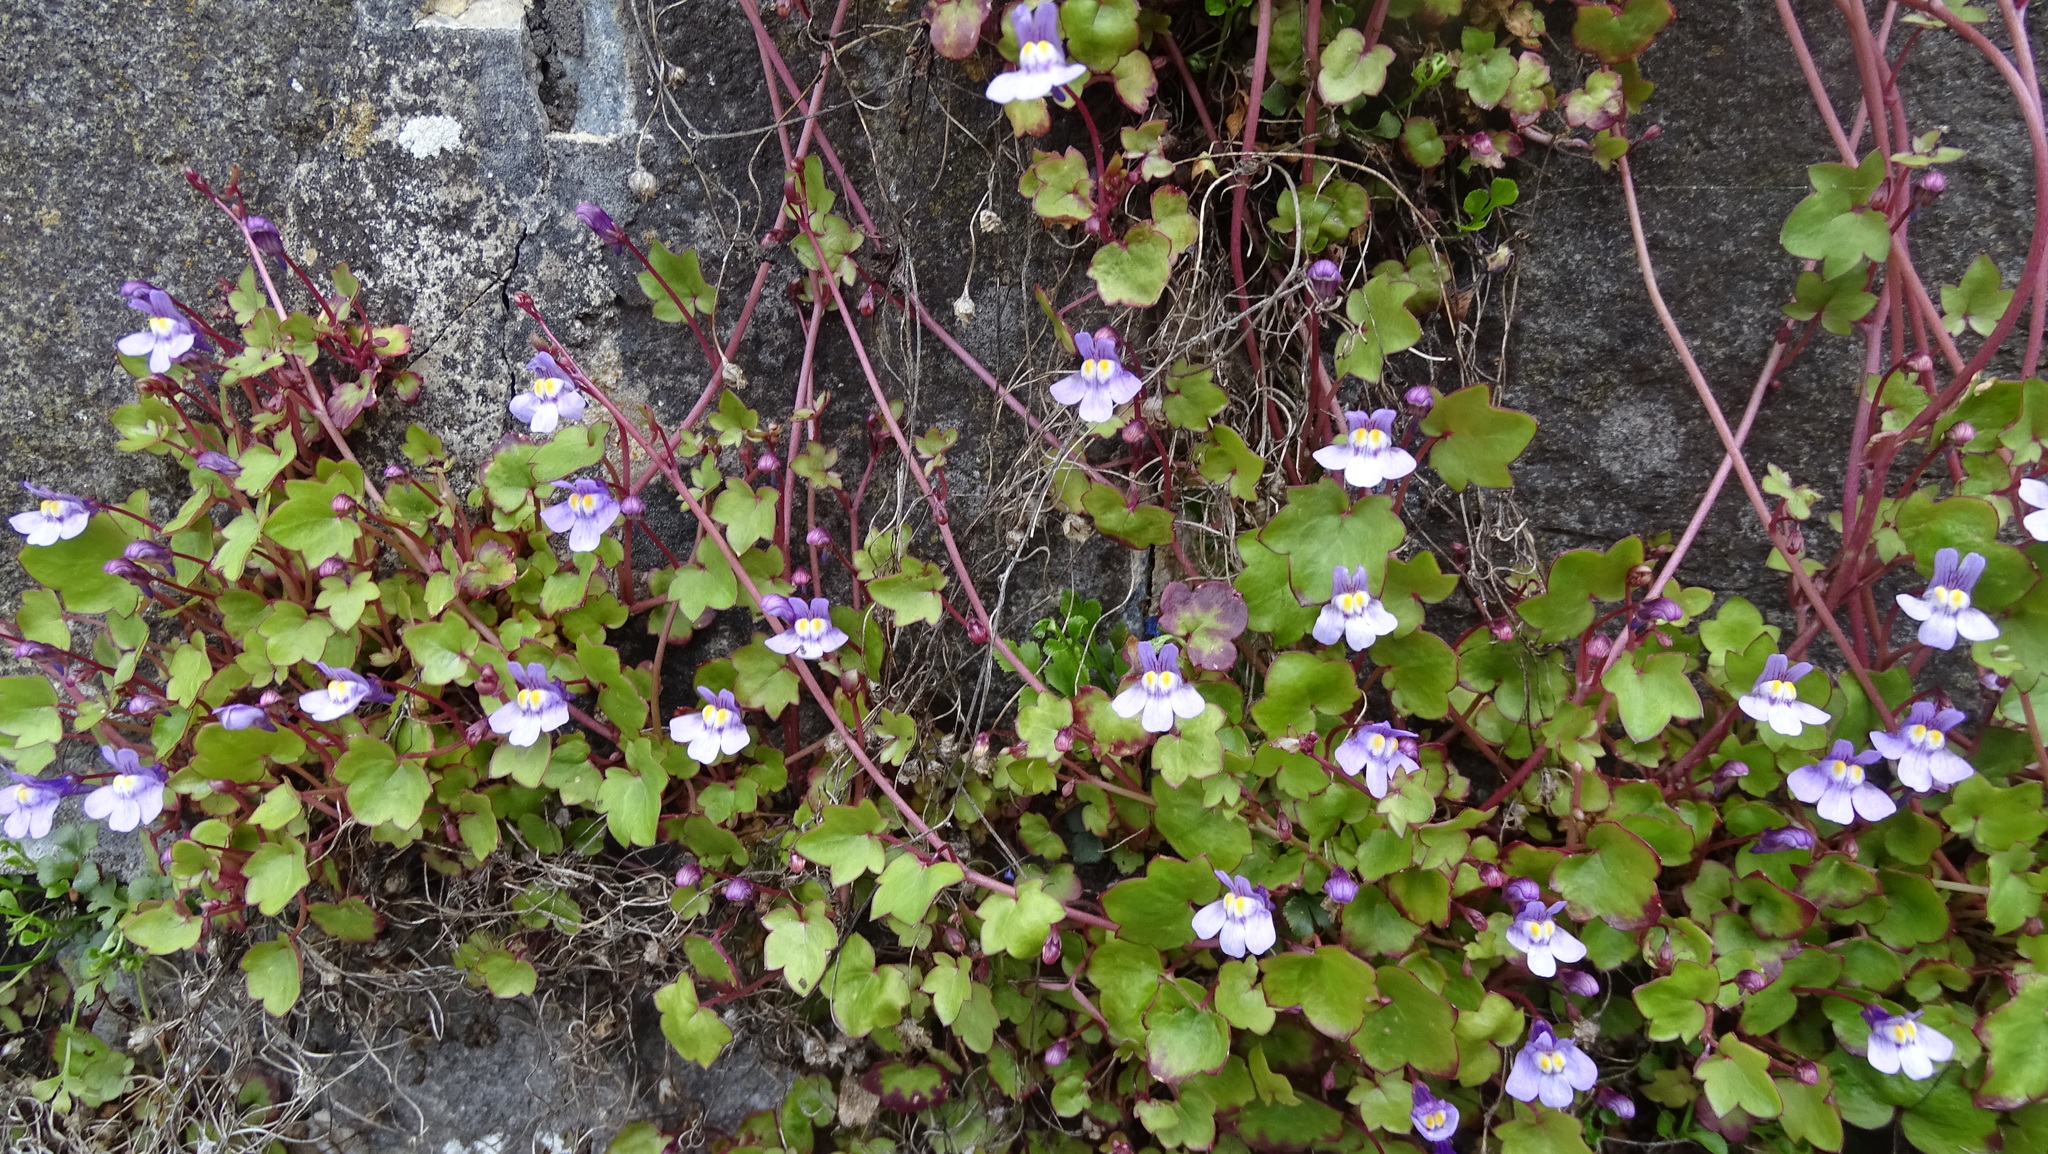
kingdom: Plantae
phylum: Tracheophyta
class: Magnoliopsida
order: Lamiales
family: Plantaginaceae
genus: Cymbalaria
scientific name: Cymbalaria muralis
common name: Ivy-leaved toadflax
